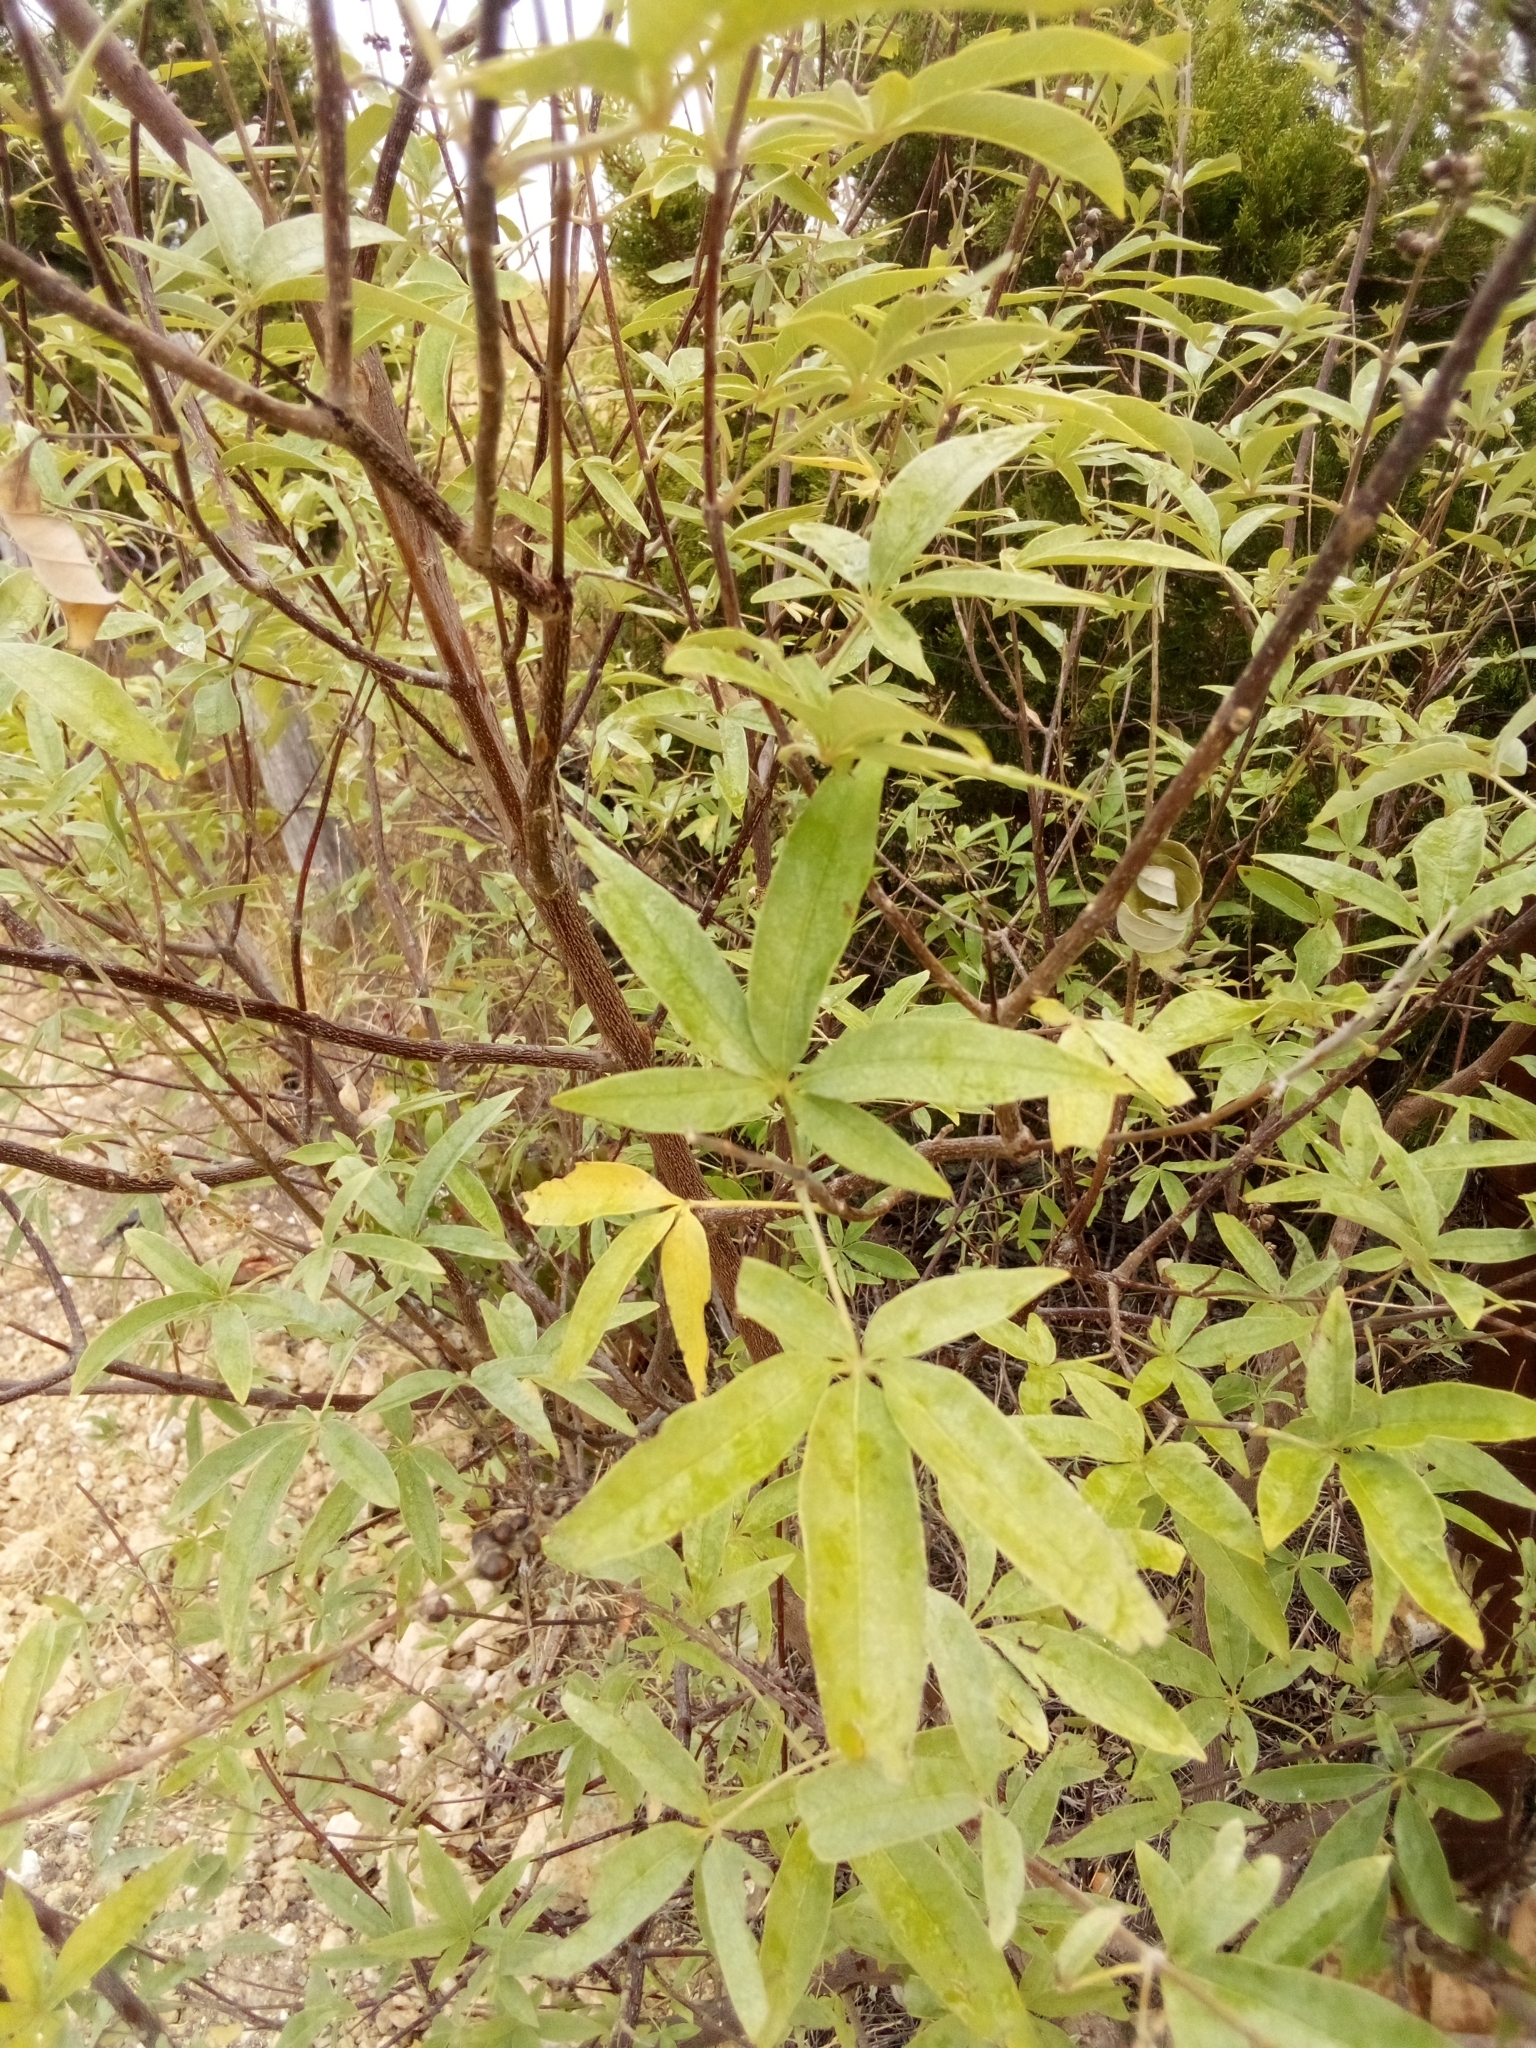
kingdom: Plantae
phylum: Tracheophyta
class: Magnoliopsida
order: Lamiales
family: Lamiaceae
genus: Vitex
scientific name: Vitex agnus-castus
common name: Chasteberry
